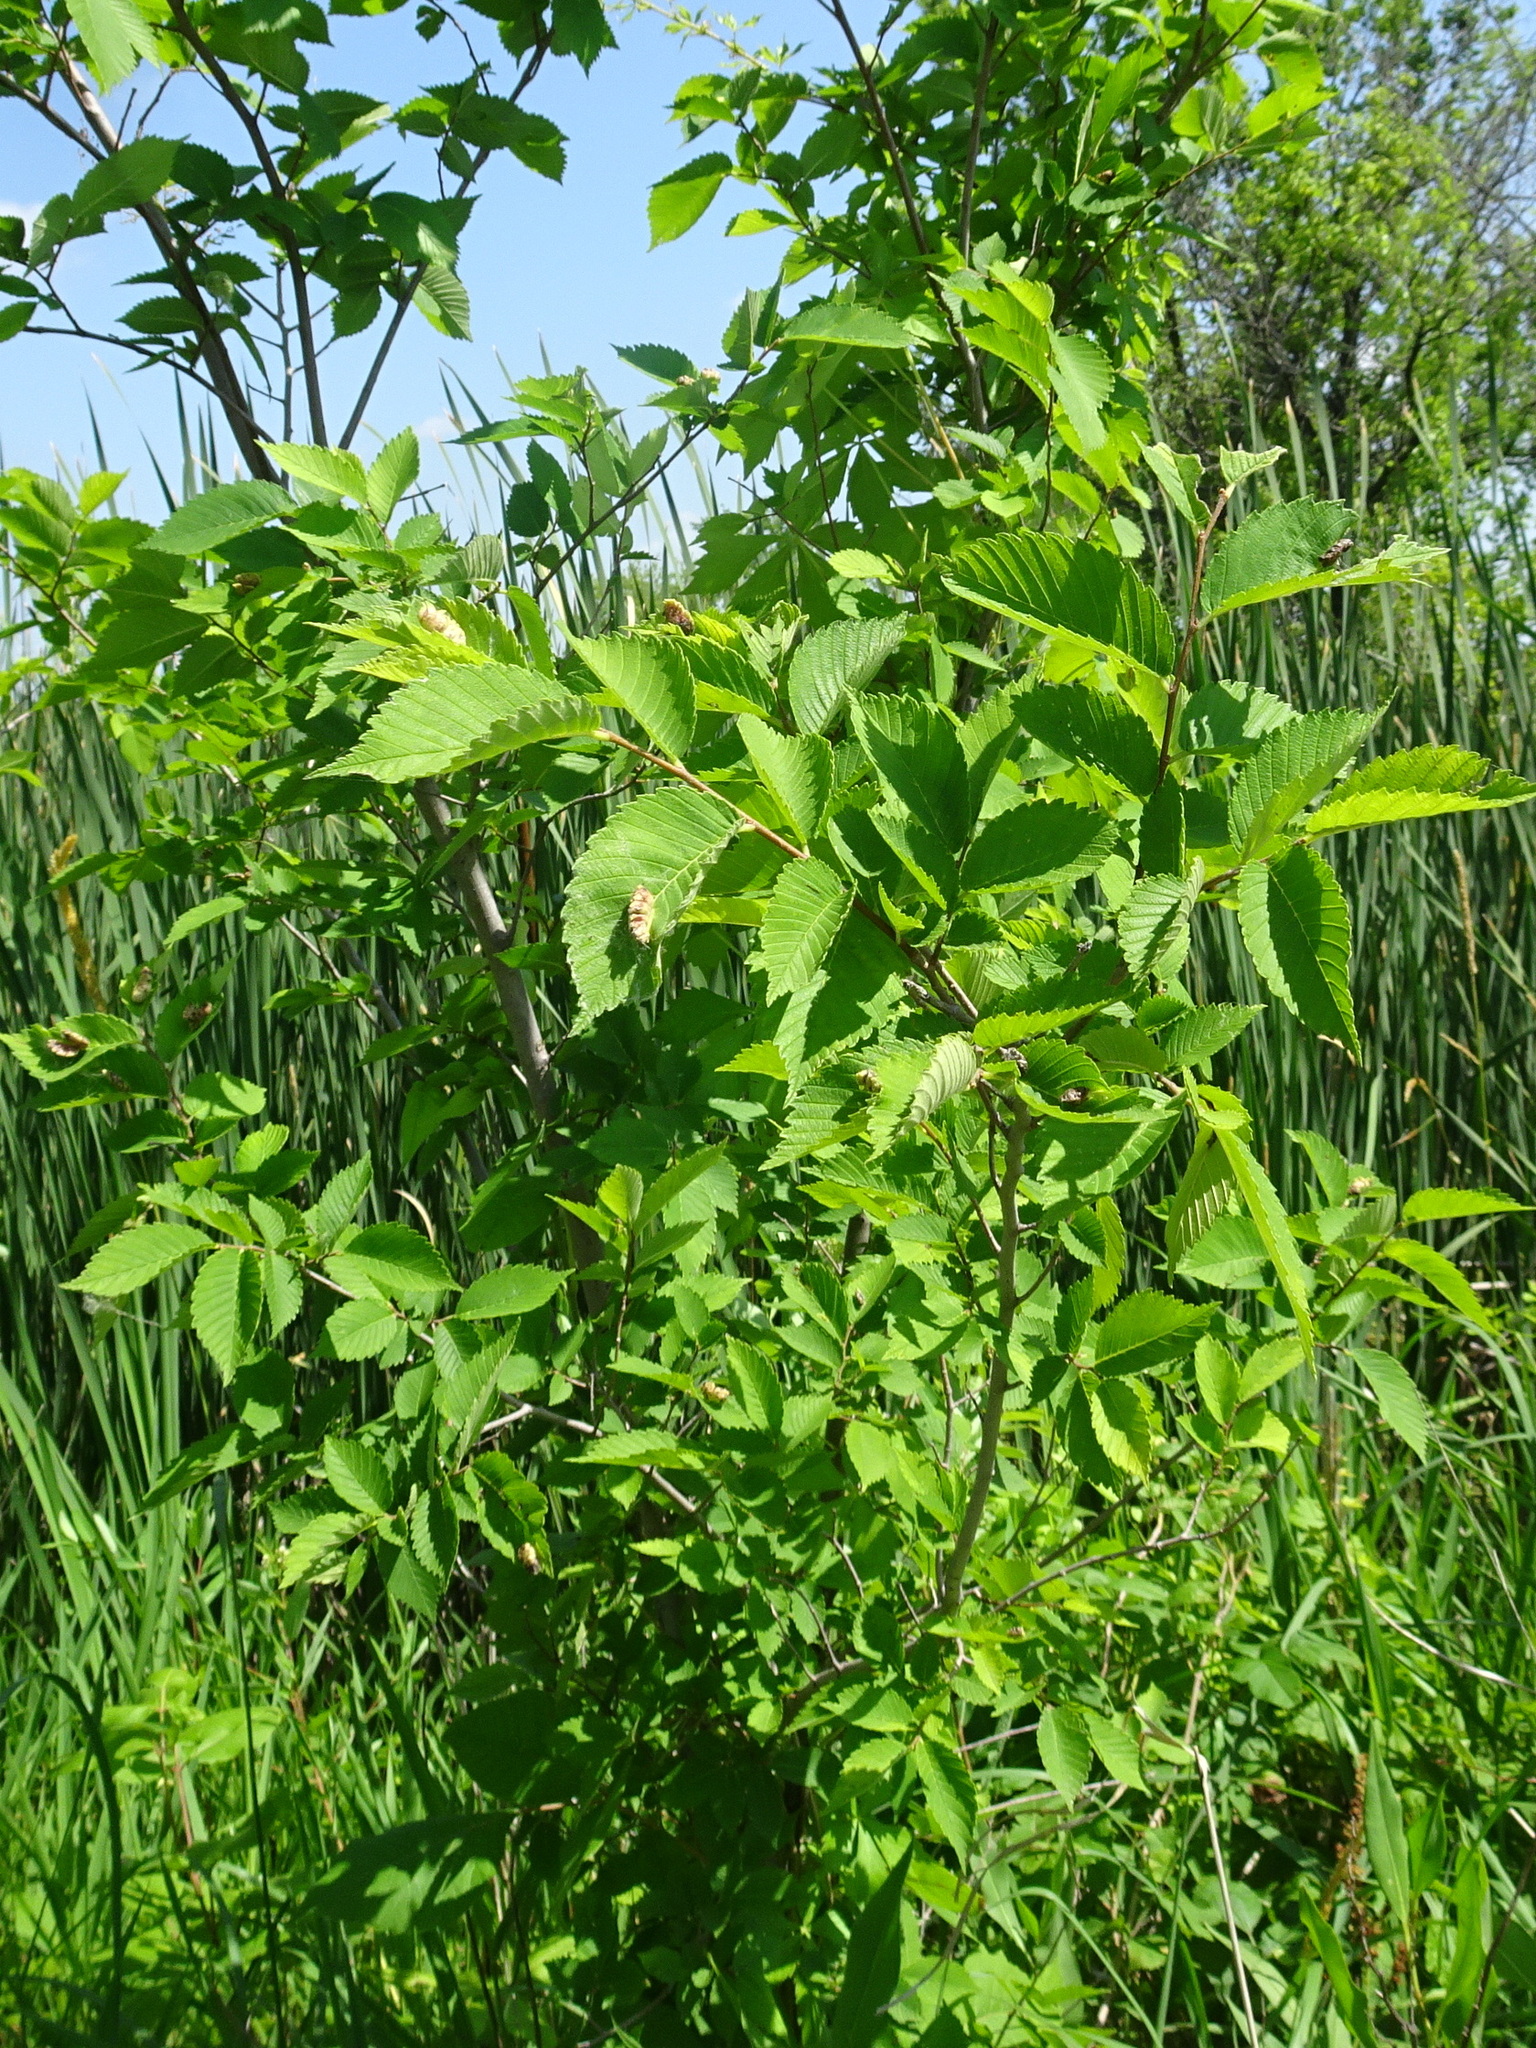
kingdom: Animalia
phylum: Arthropoda
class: Insecta
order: Hemiptera
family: Aphididae
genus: Colopha
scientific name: Colopha ulmicola
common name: Elm cockscombgall aphid
